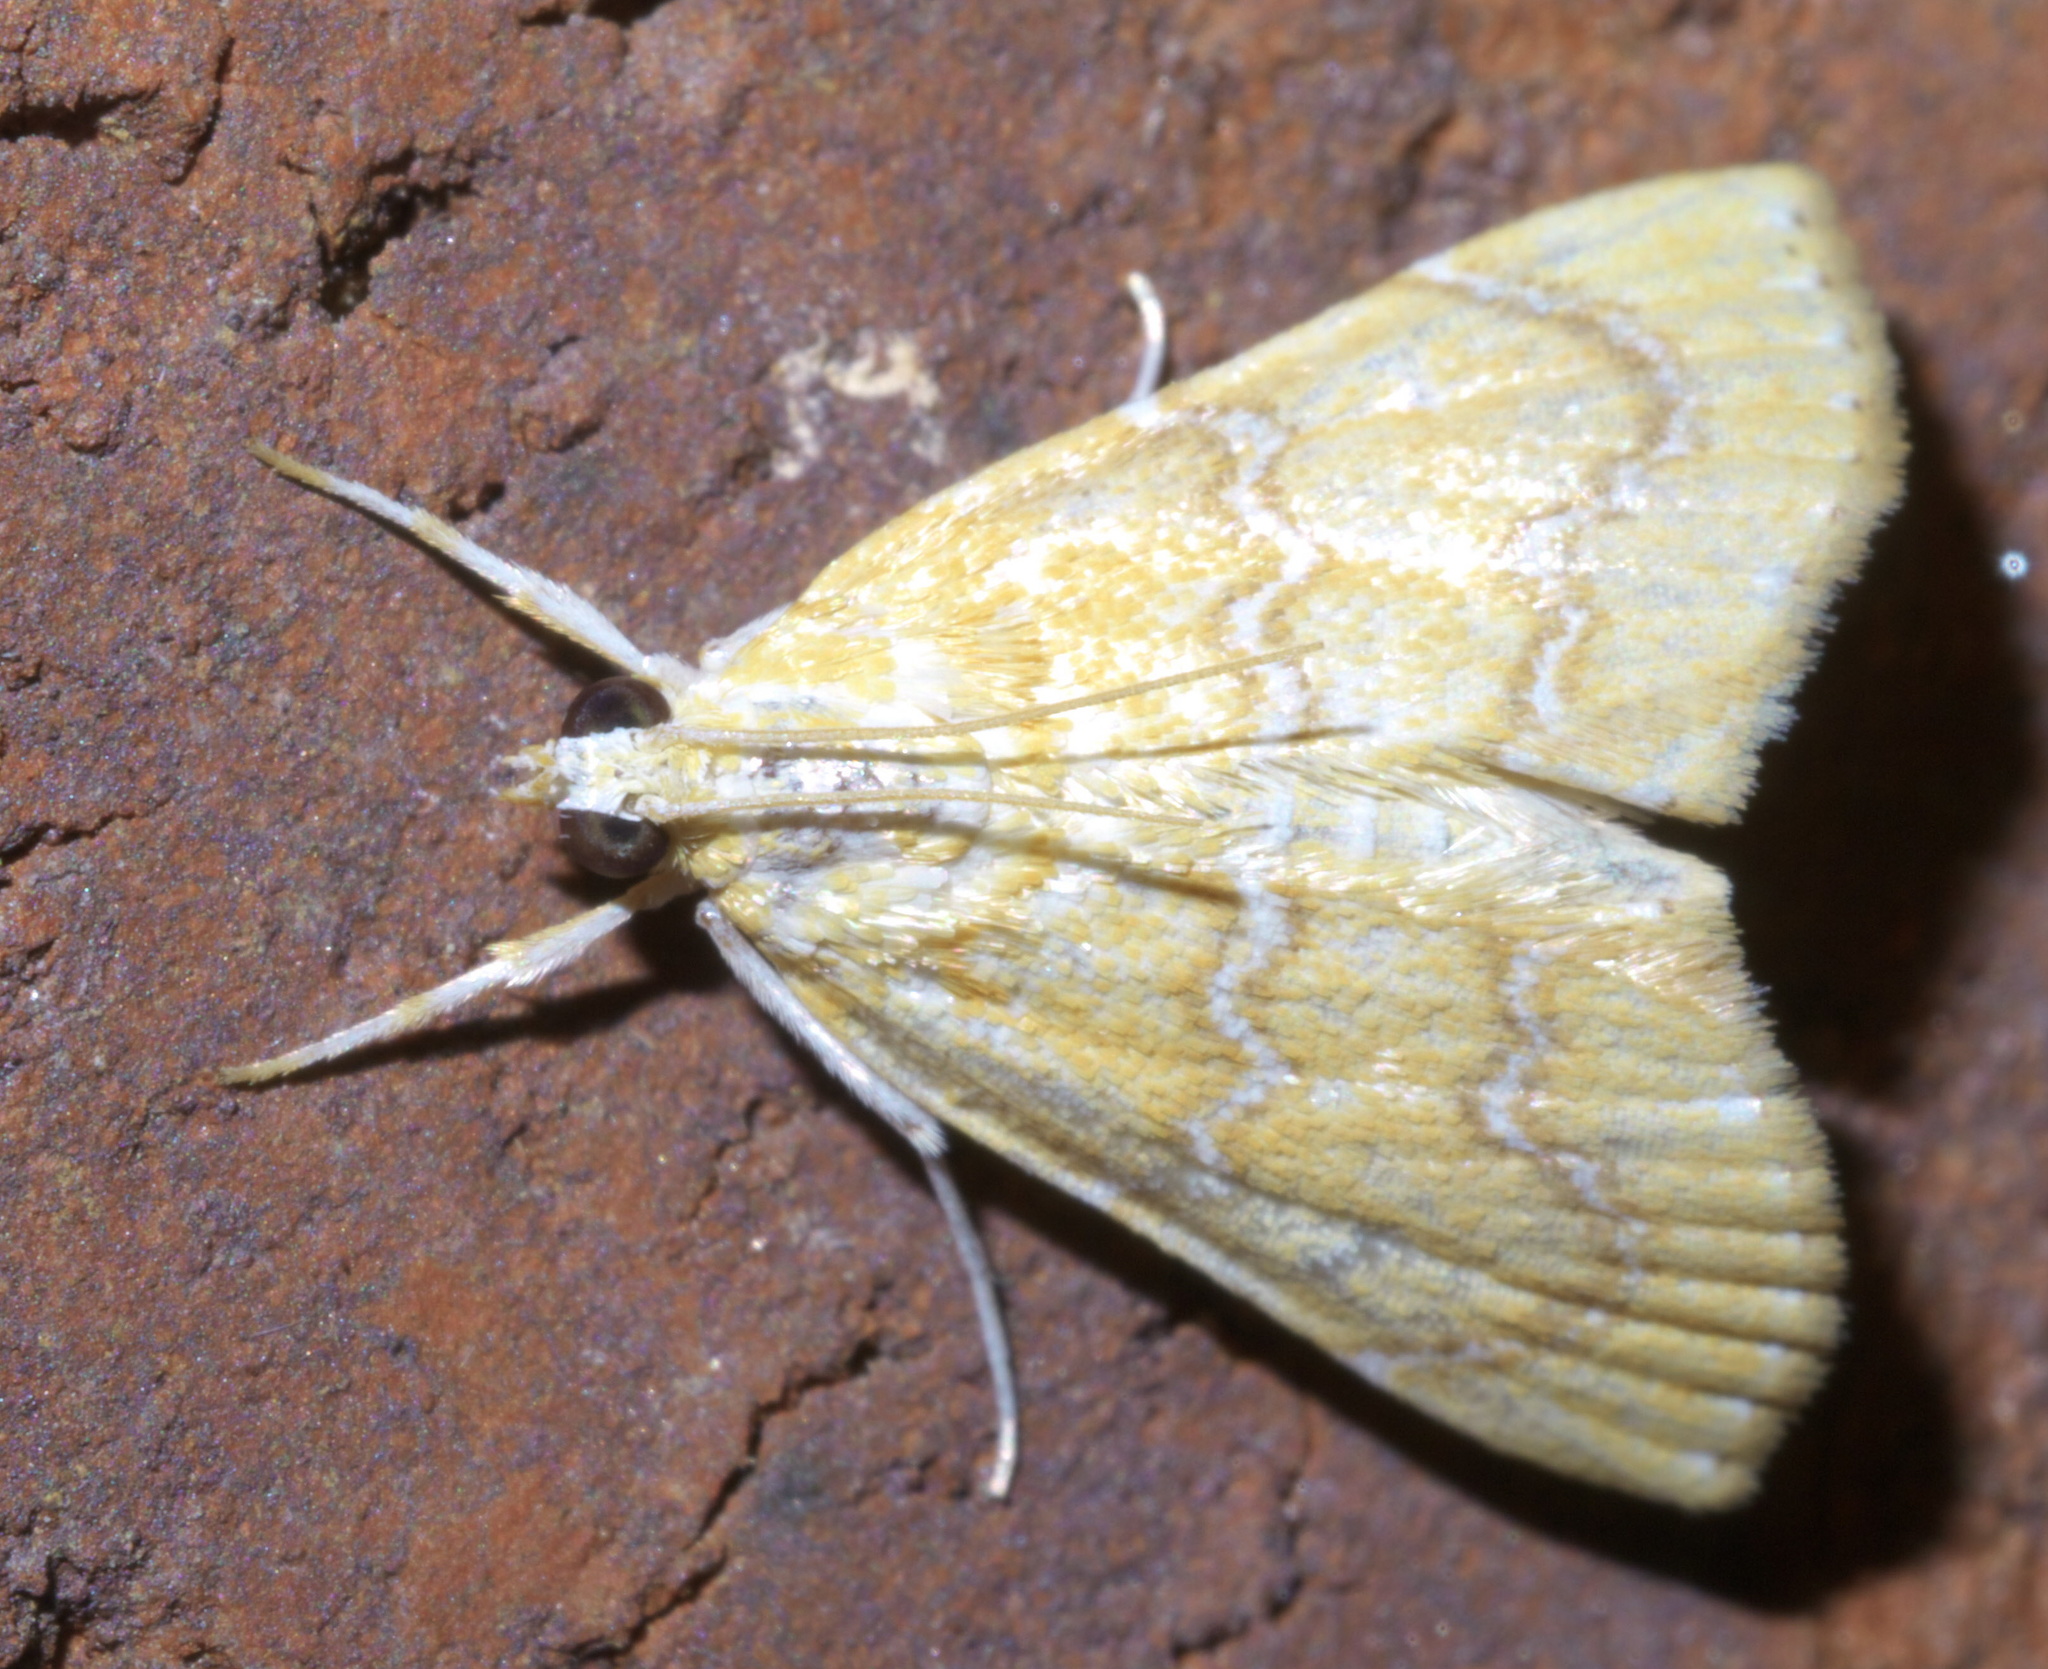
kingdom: Animalia
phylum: Arthropoda
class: Insecta
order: Lepidoptera
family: Crambidae
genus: Glaphyria
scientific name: Glaphyria sesquistrialis
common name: White-roped glaphyria
